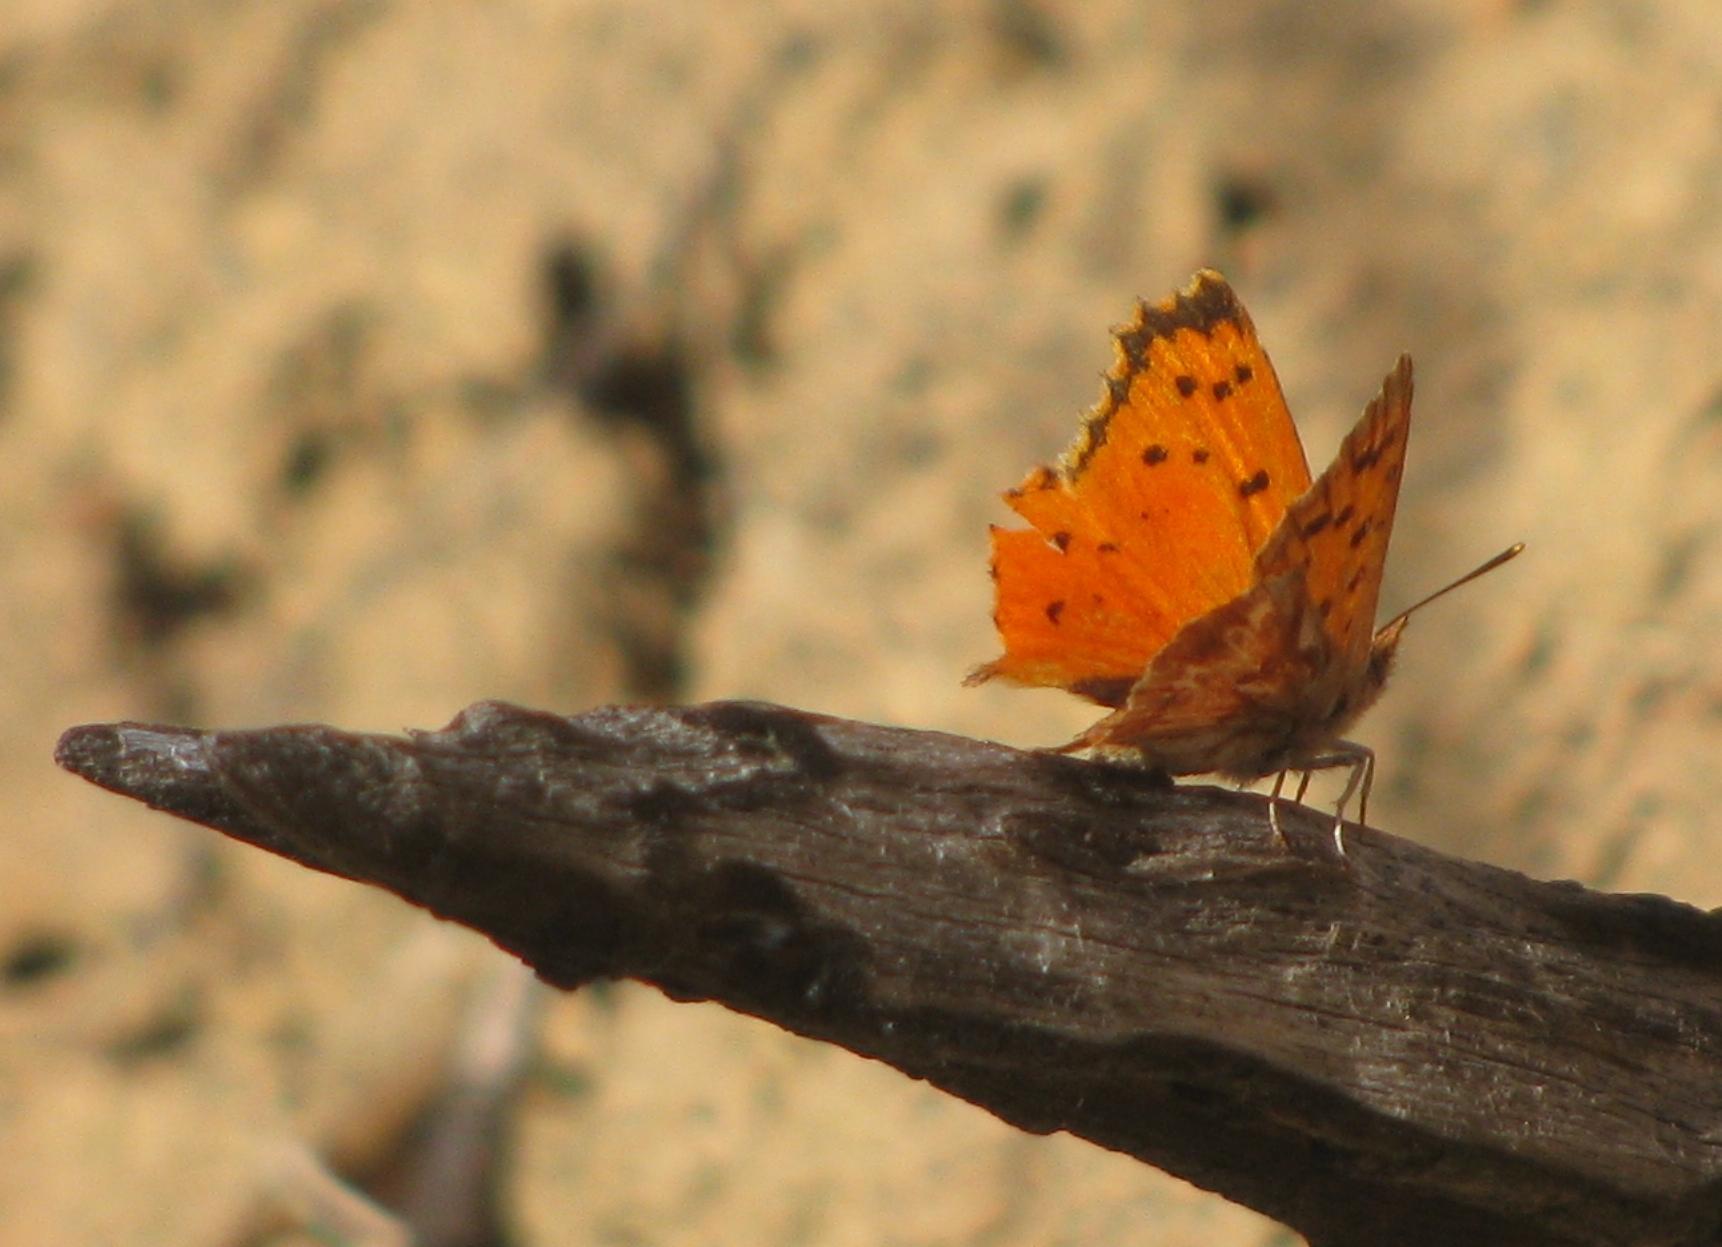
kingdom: Animalia
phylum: Arthropoda
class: Insecta
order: Lepidoptera
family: Lycaenidae
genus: Chrysoritis
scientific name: Chrysoritis
